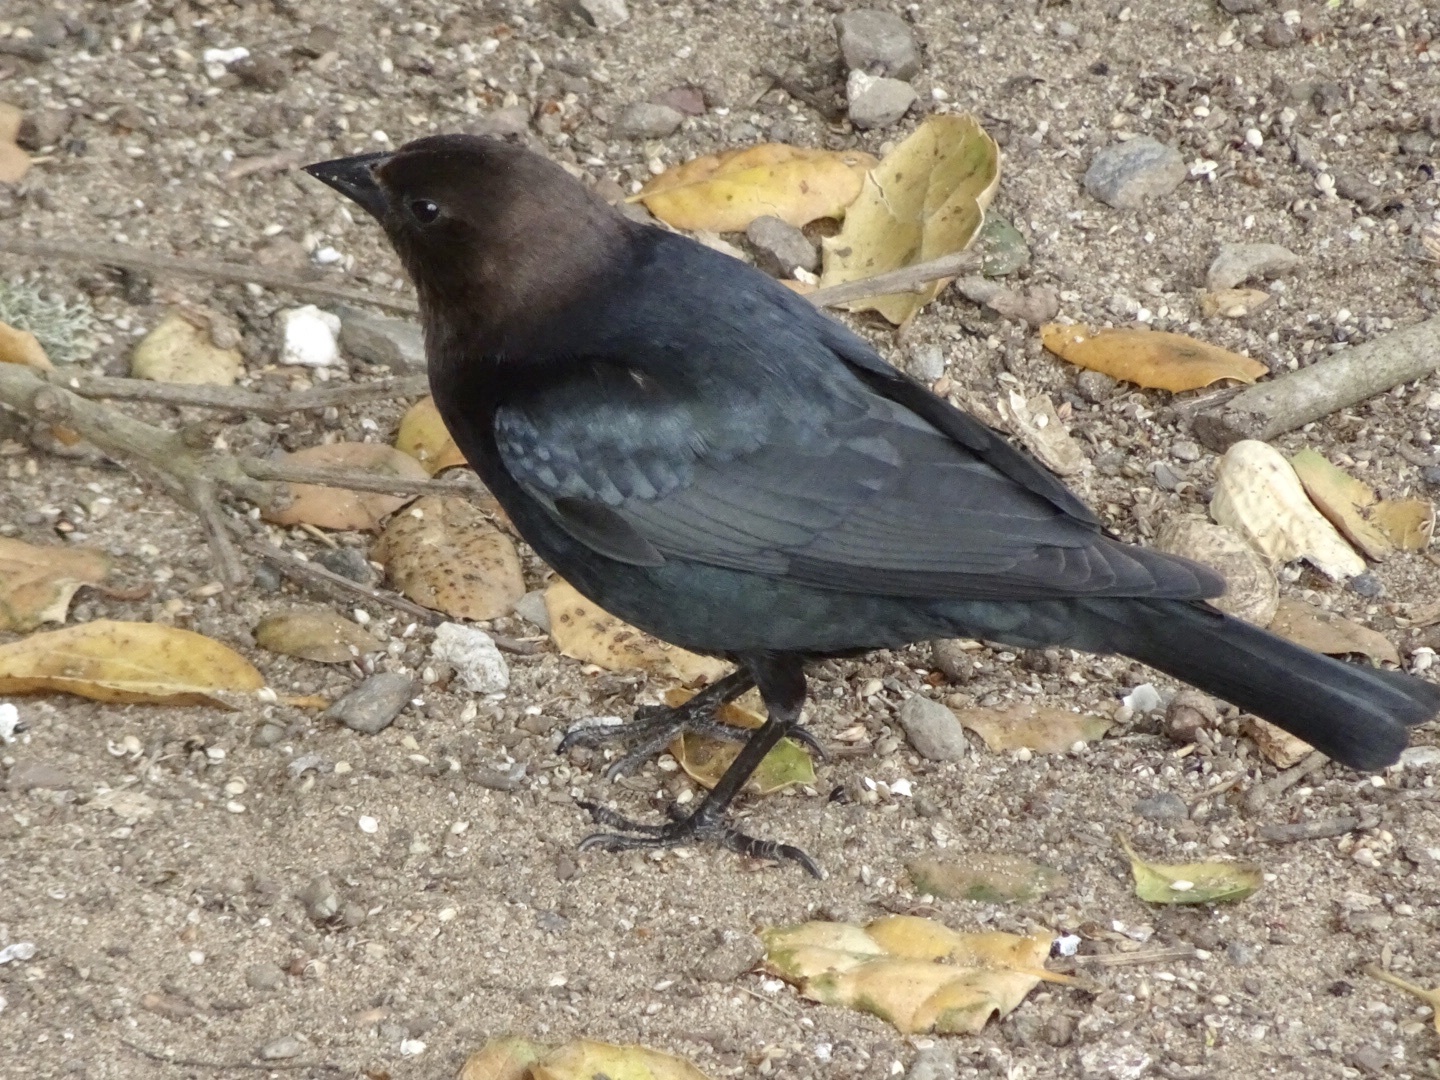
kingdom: Animalia
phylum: Chordata
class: Aves
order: Passeriformes
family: Icteridae
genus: Molothrus
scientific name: Molothrus ater
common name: Brown-headed cowbird
